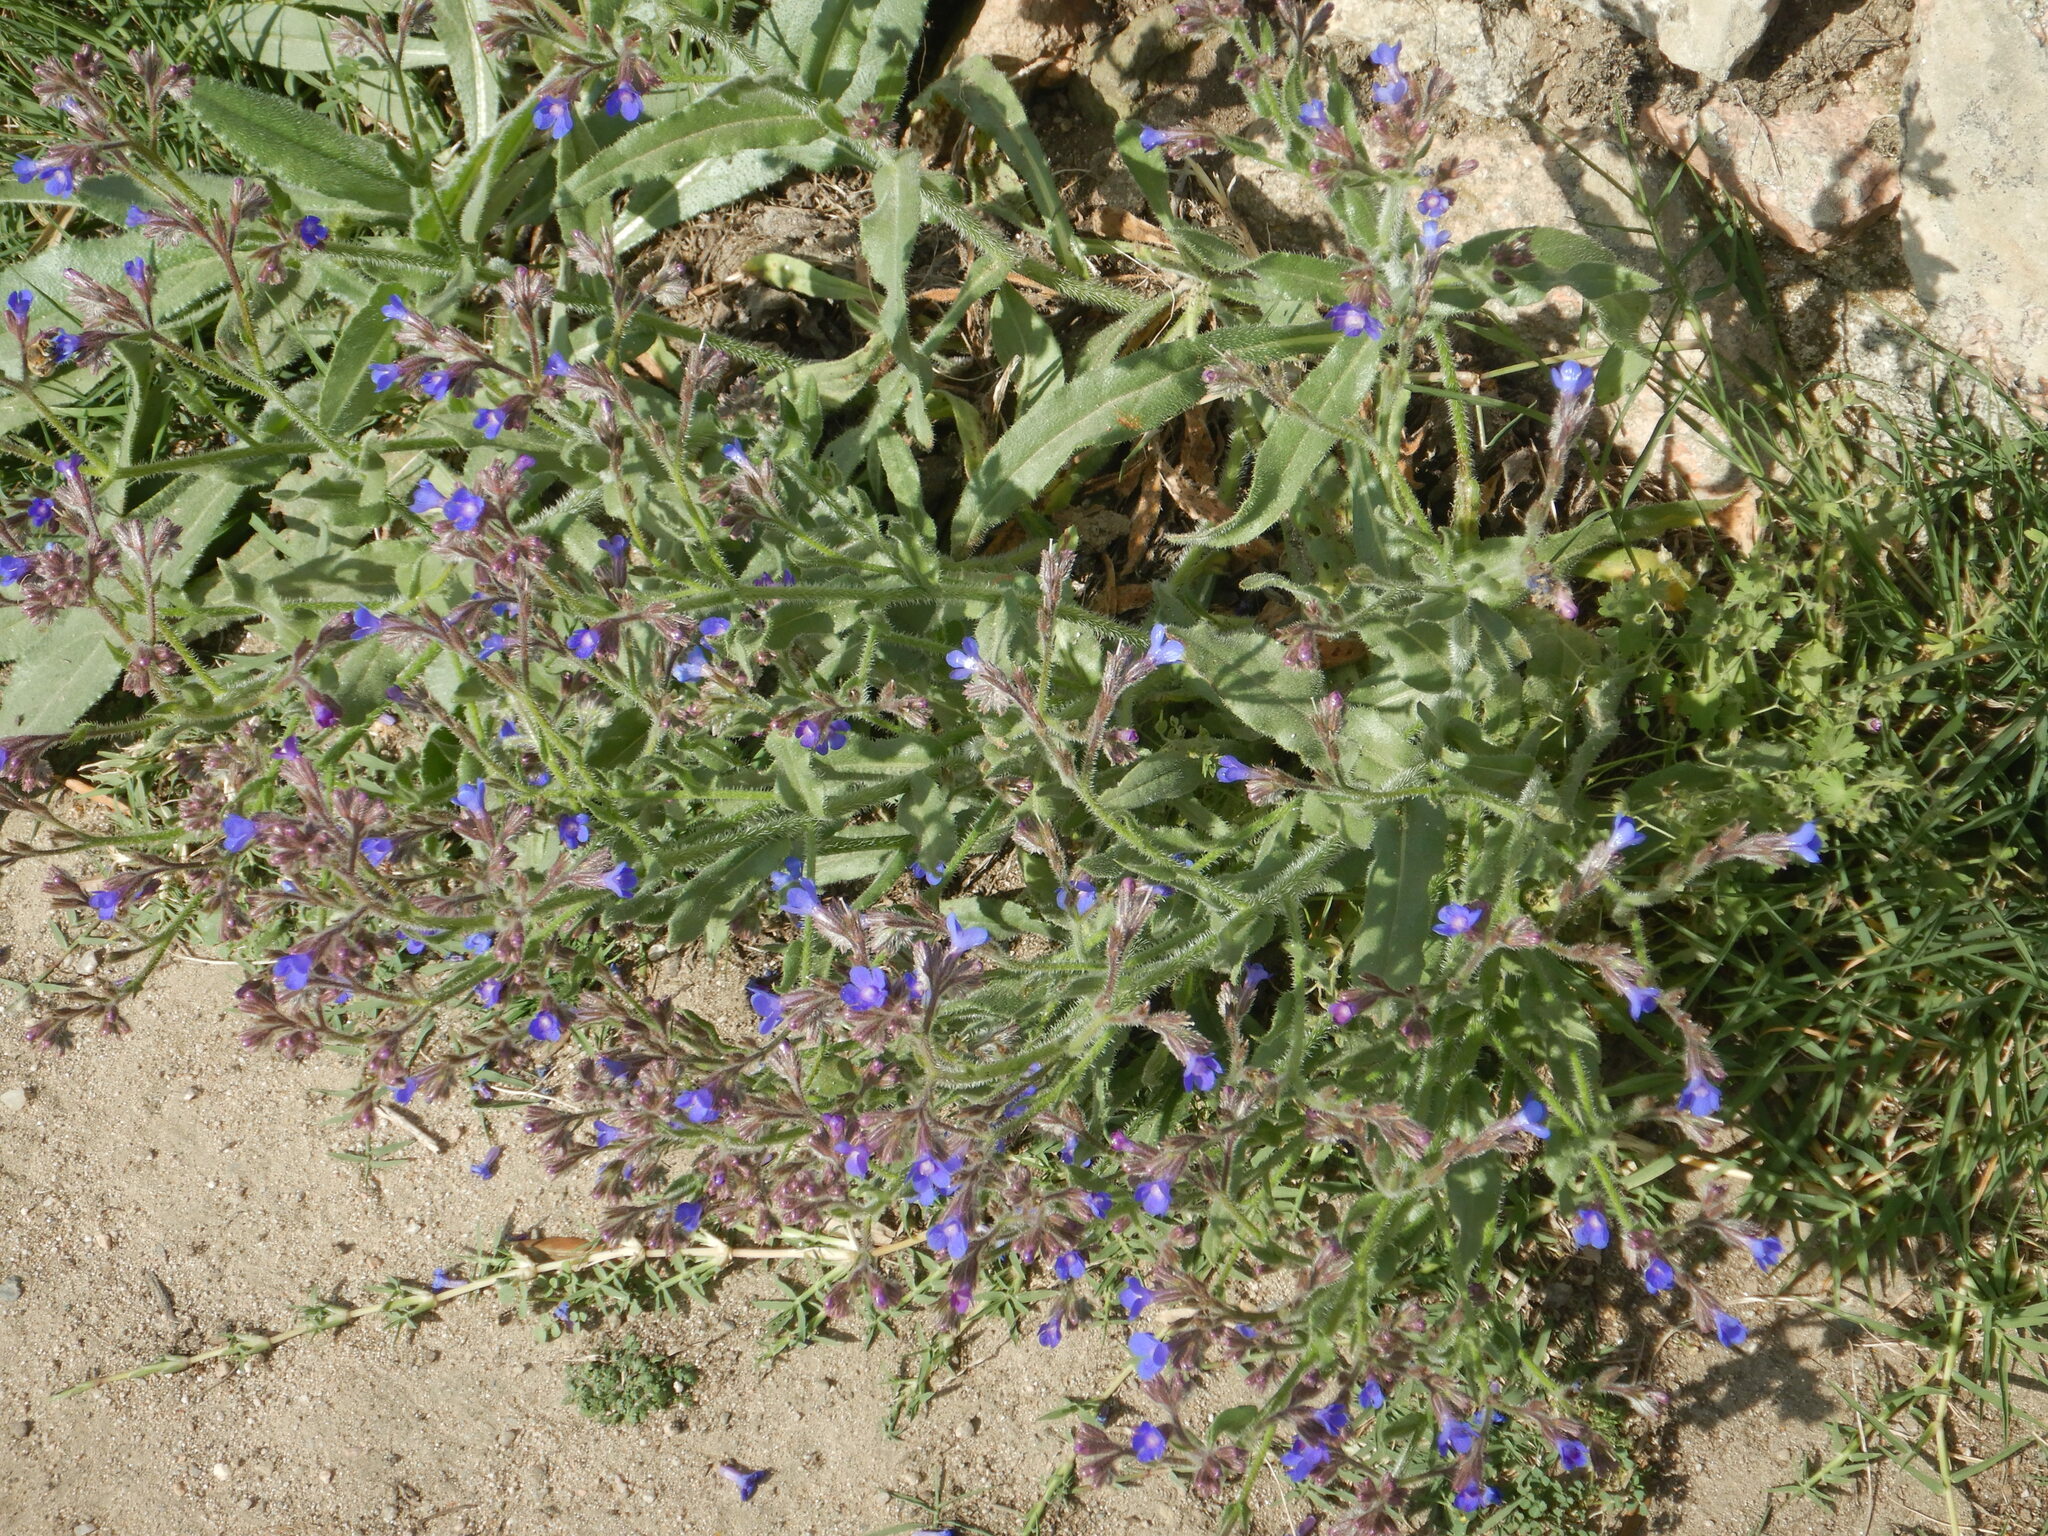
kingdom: Plantae
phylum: Tracheophyta
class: Magnoliopsida
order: Boraginales
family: Boraginaceae
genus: Anchusa
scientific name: Anchusa azurea
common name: Garden anchusa
